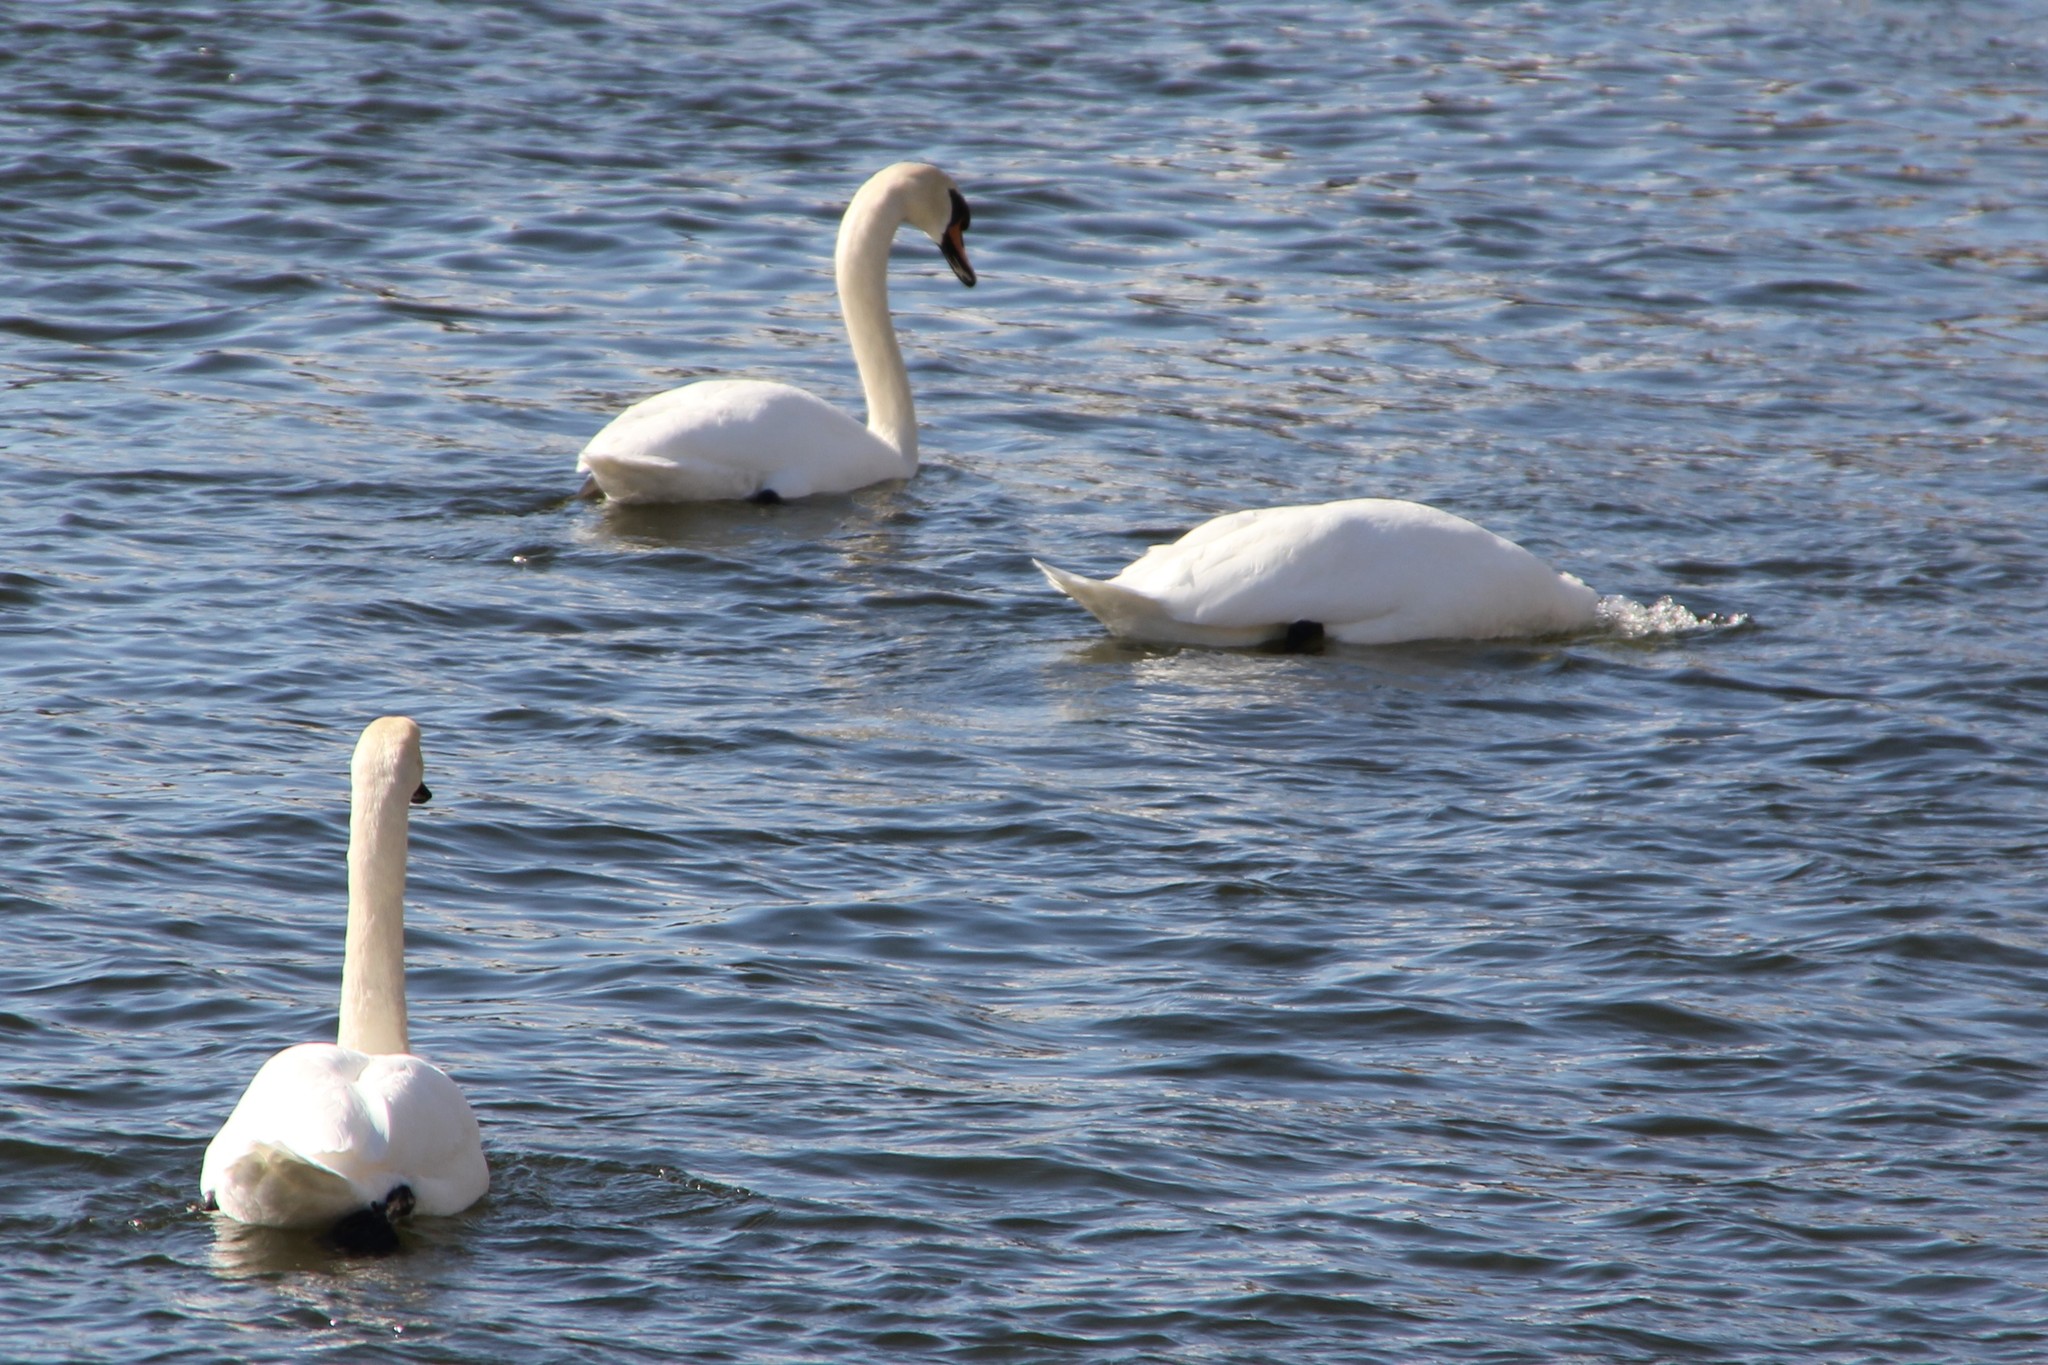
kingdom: Animalia
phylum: Chordata
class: Aves
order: Anseriformes
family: Anatidae
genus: Cygnus
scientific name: Cygnus olor
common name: Mute swan
